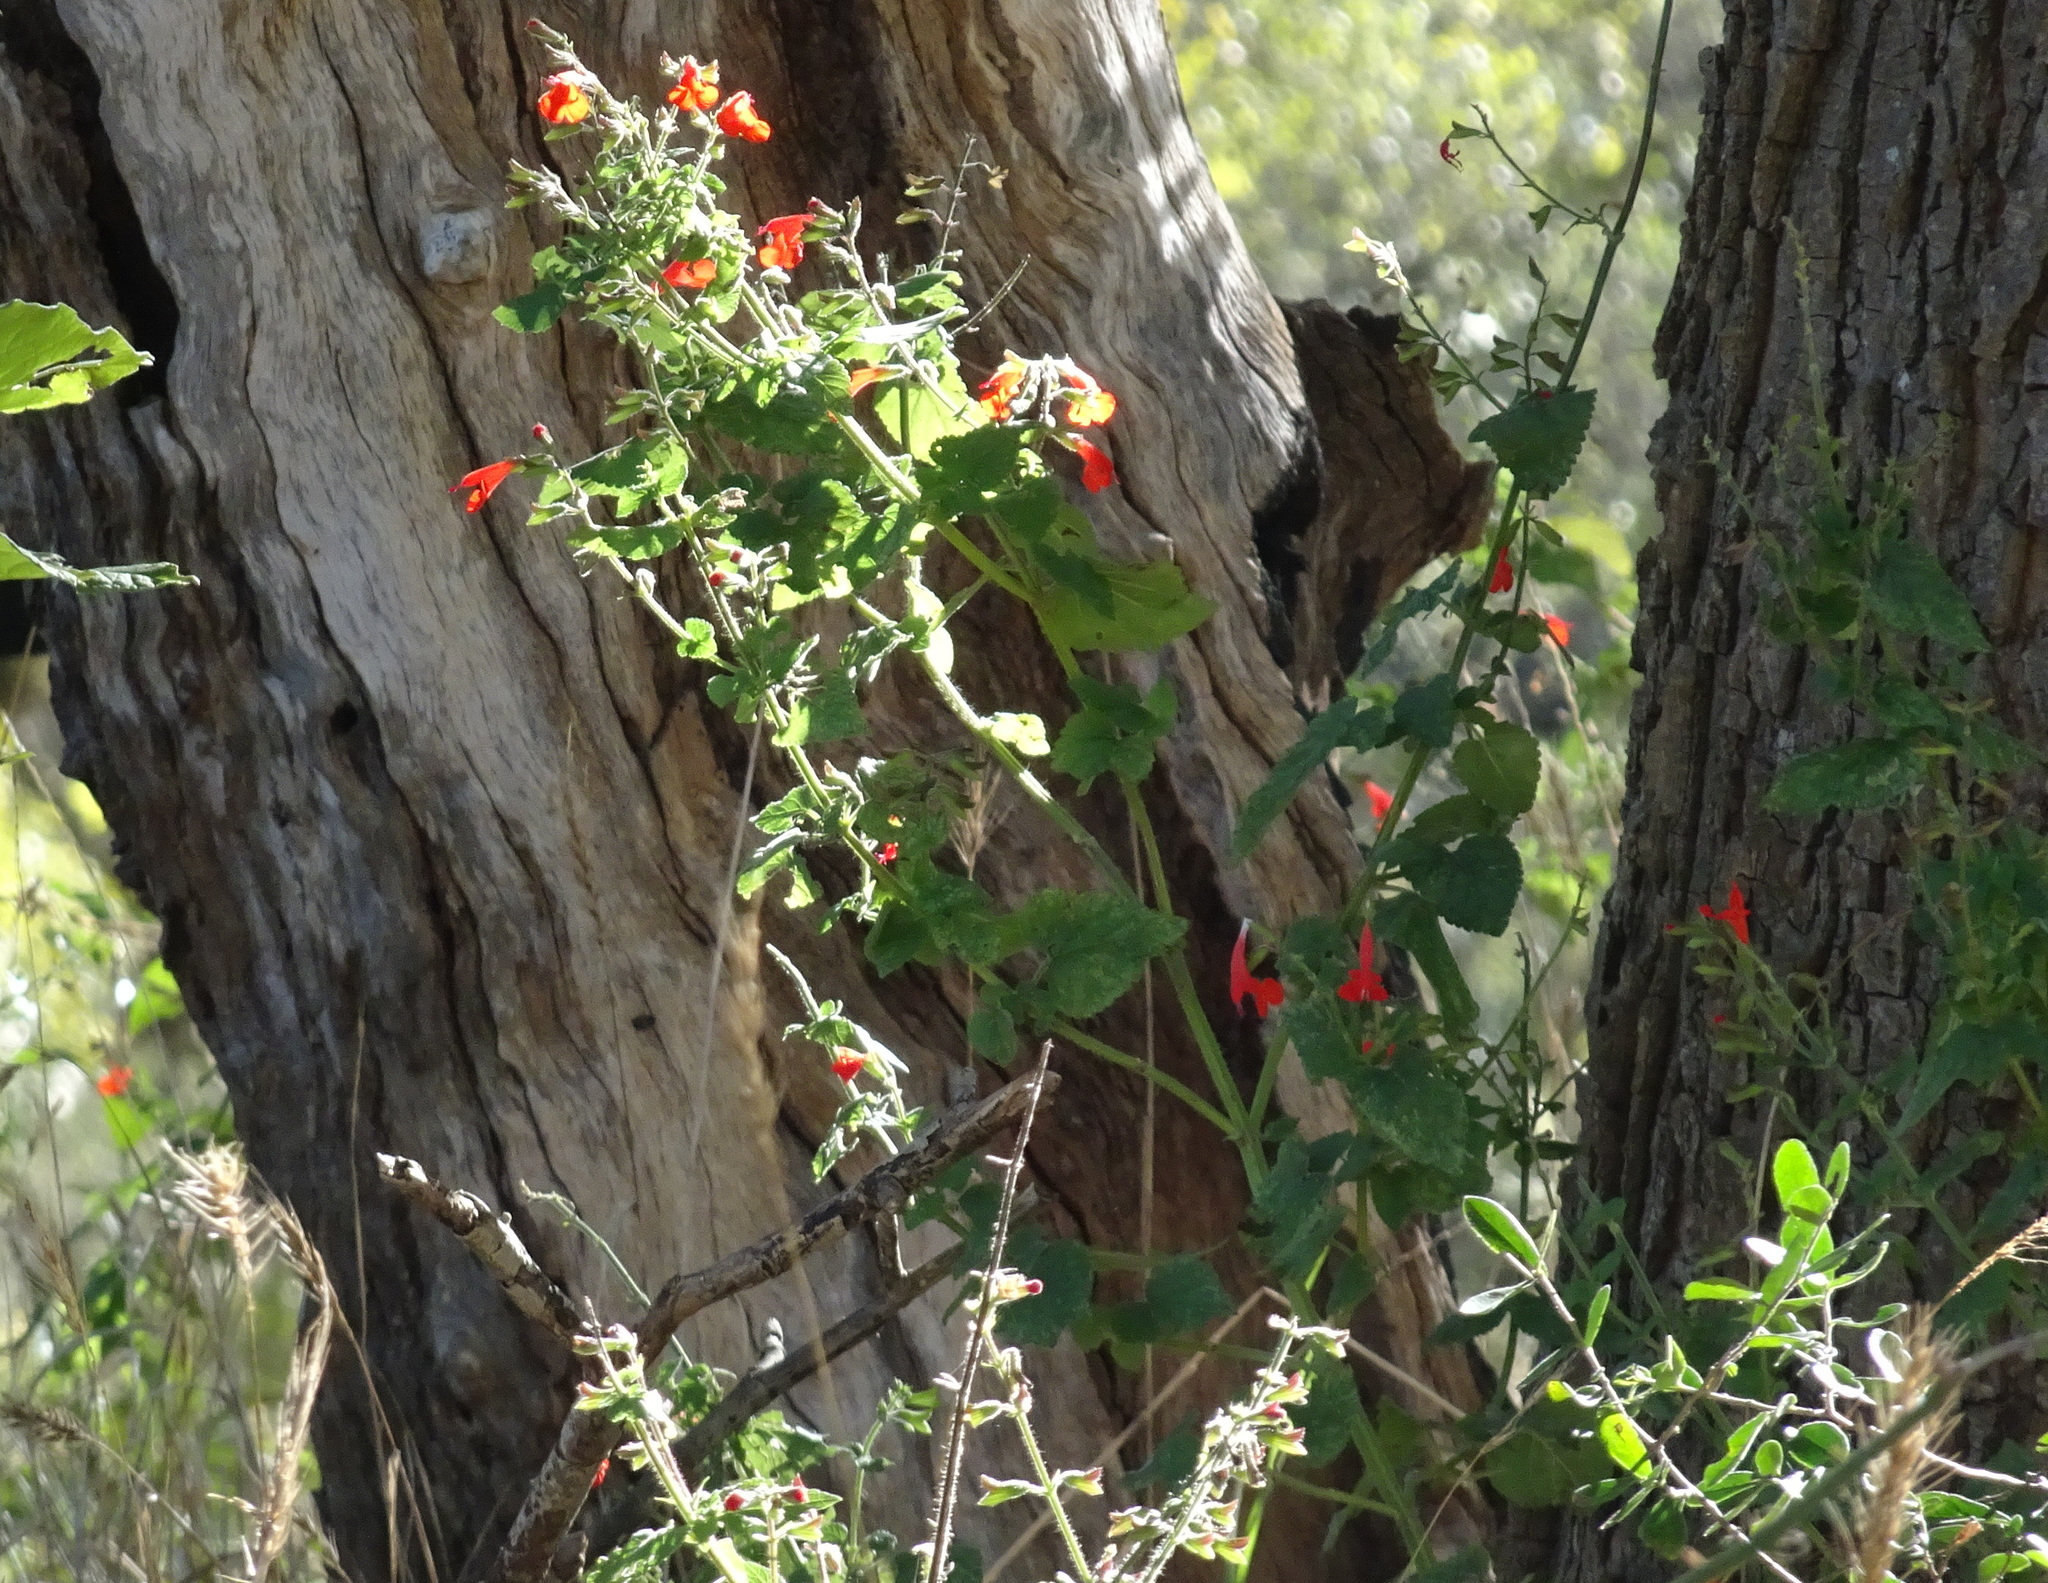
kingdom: Plantae
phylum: Tracheophyta
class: Magnoliopsida
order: Lamiales
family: Lamiaceae
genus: Salvia
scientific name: Salvia coccinea
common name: Blood sage
